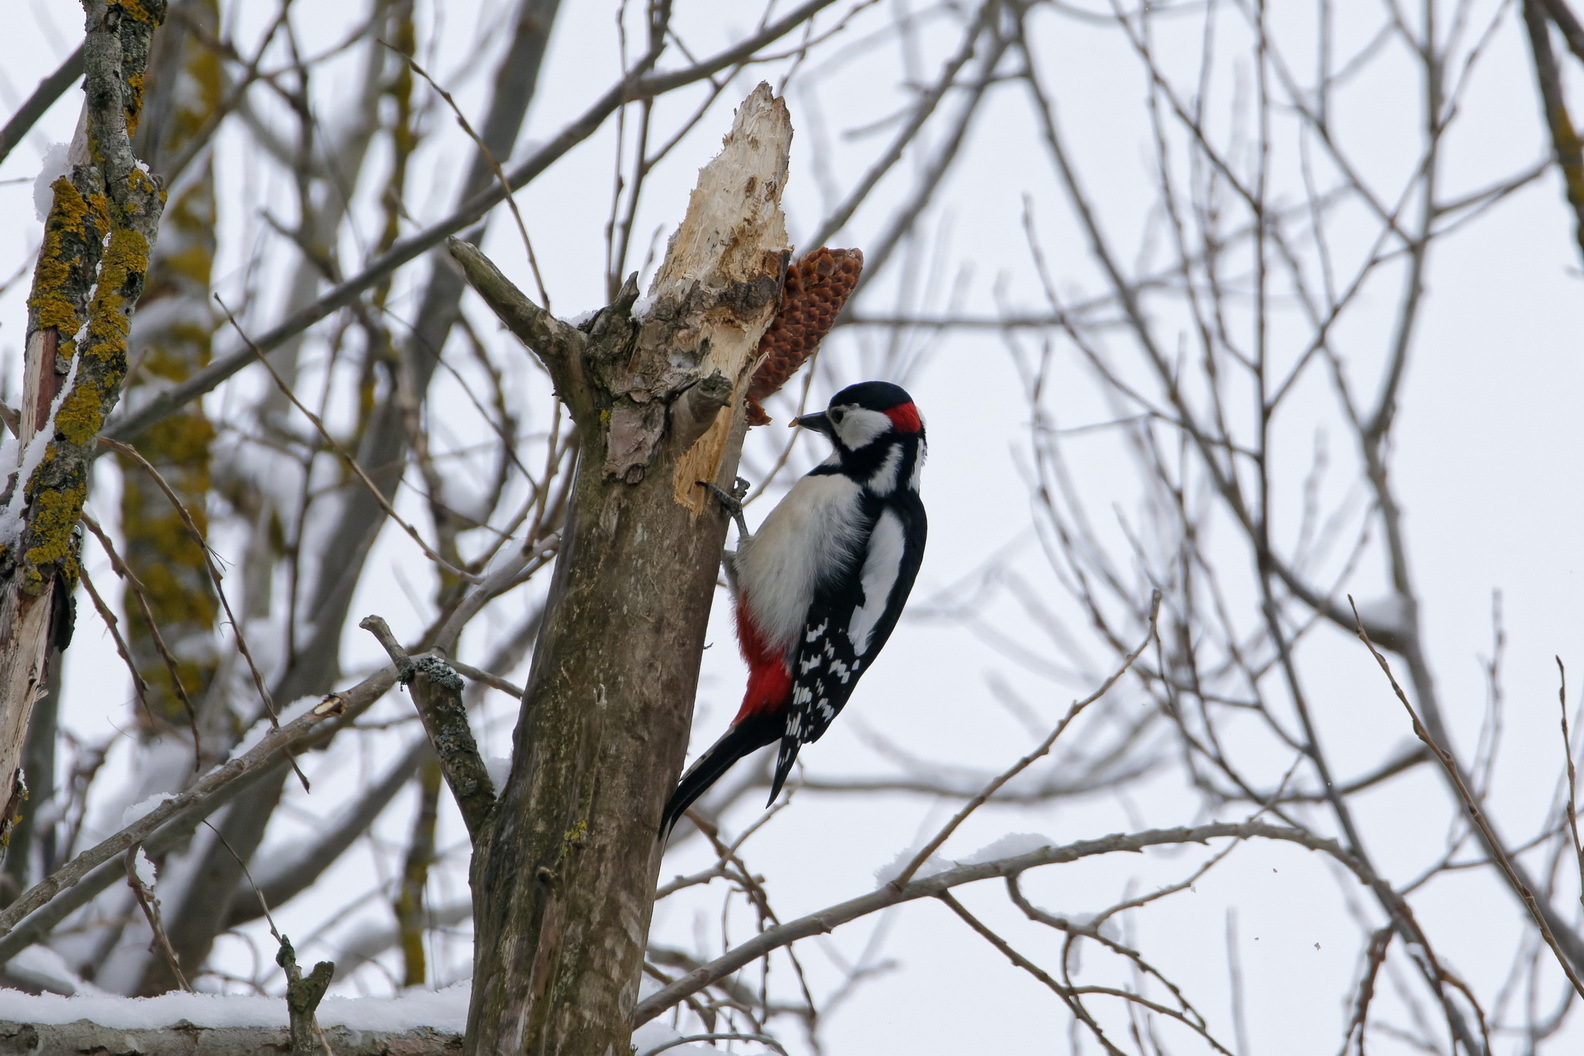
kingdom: Animalia
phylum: Chordata
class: Aves
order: Piciformes
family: Picidae
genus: Dendrocopos
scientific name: Dendrocopos major
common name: Great spotted woodpecker
